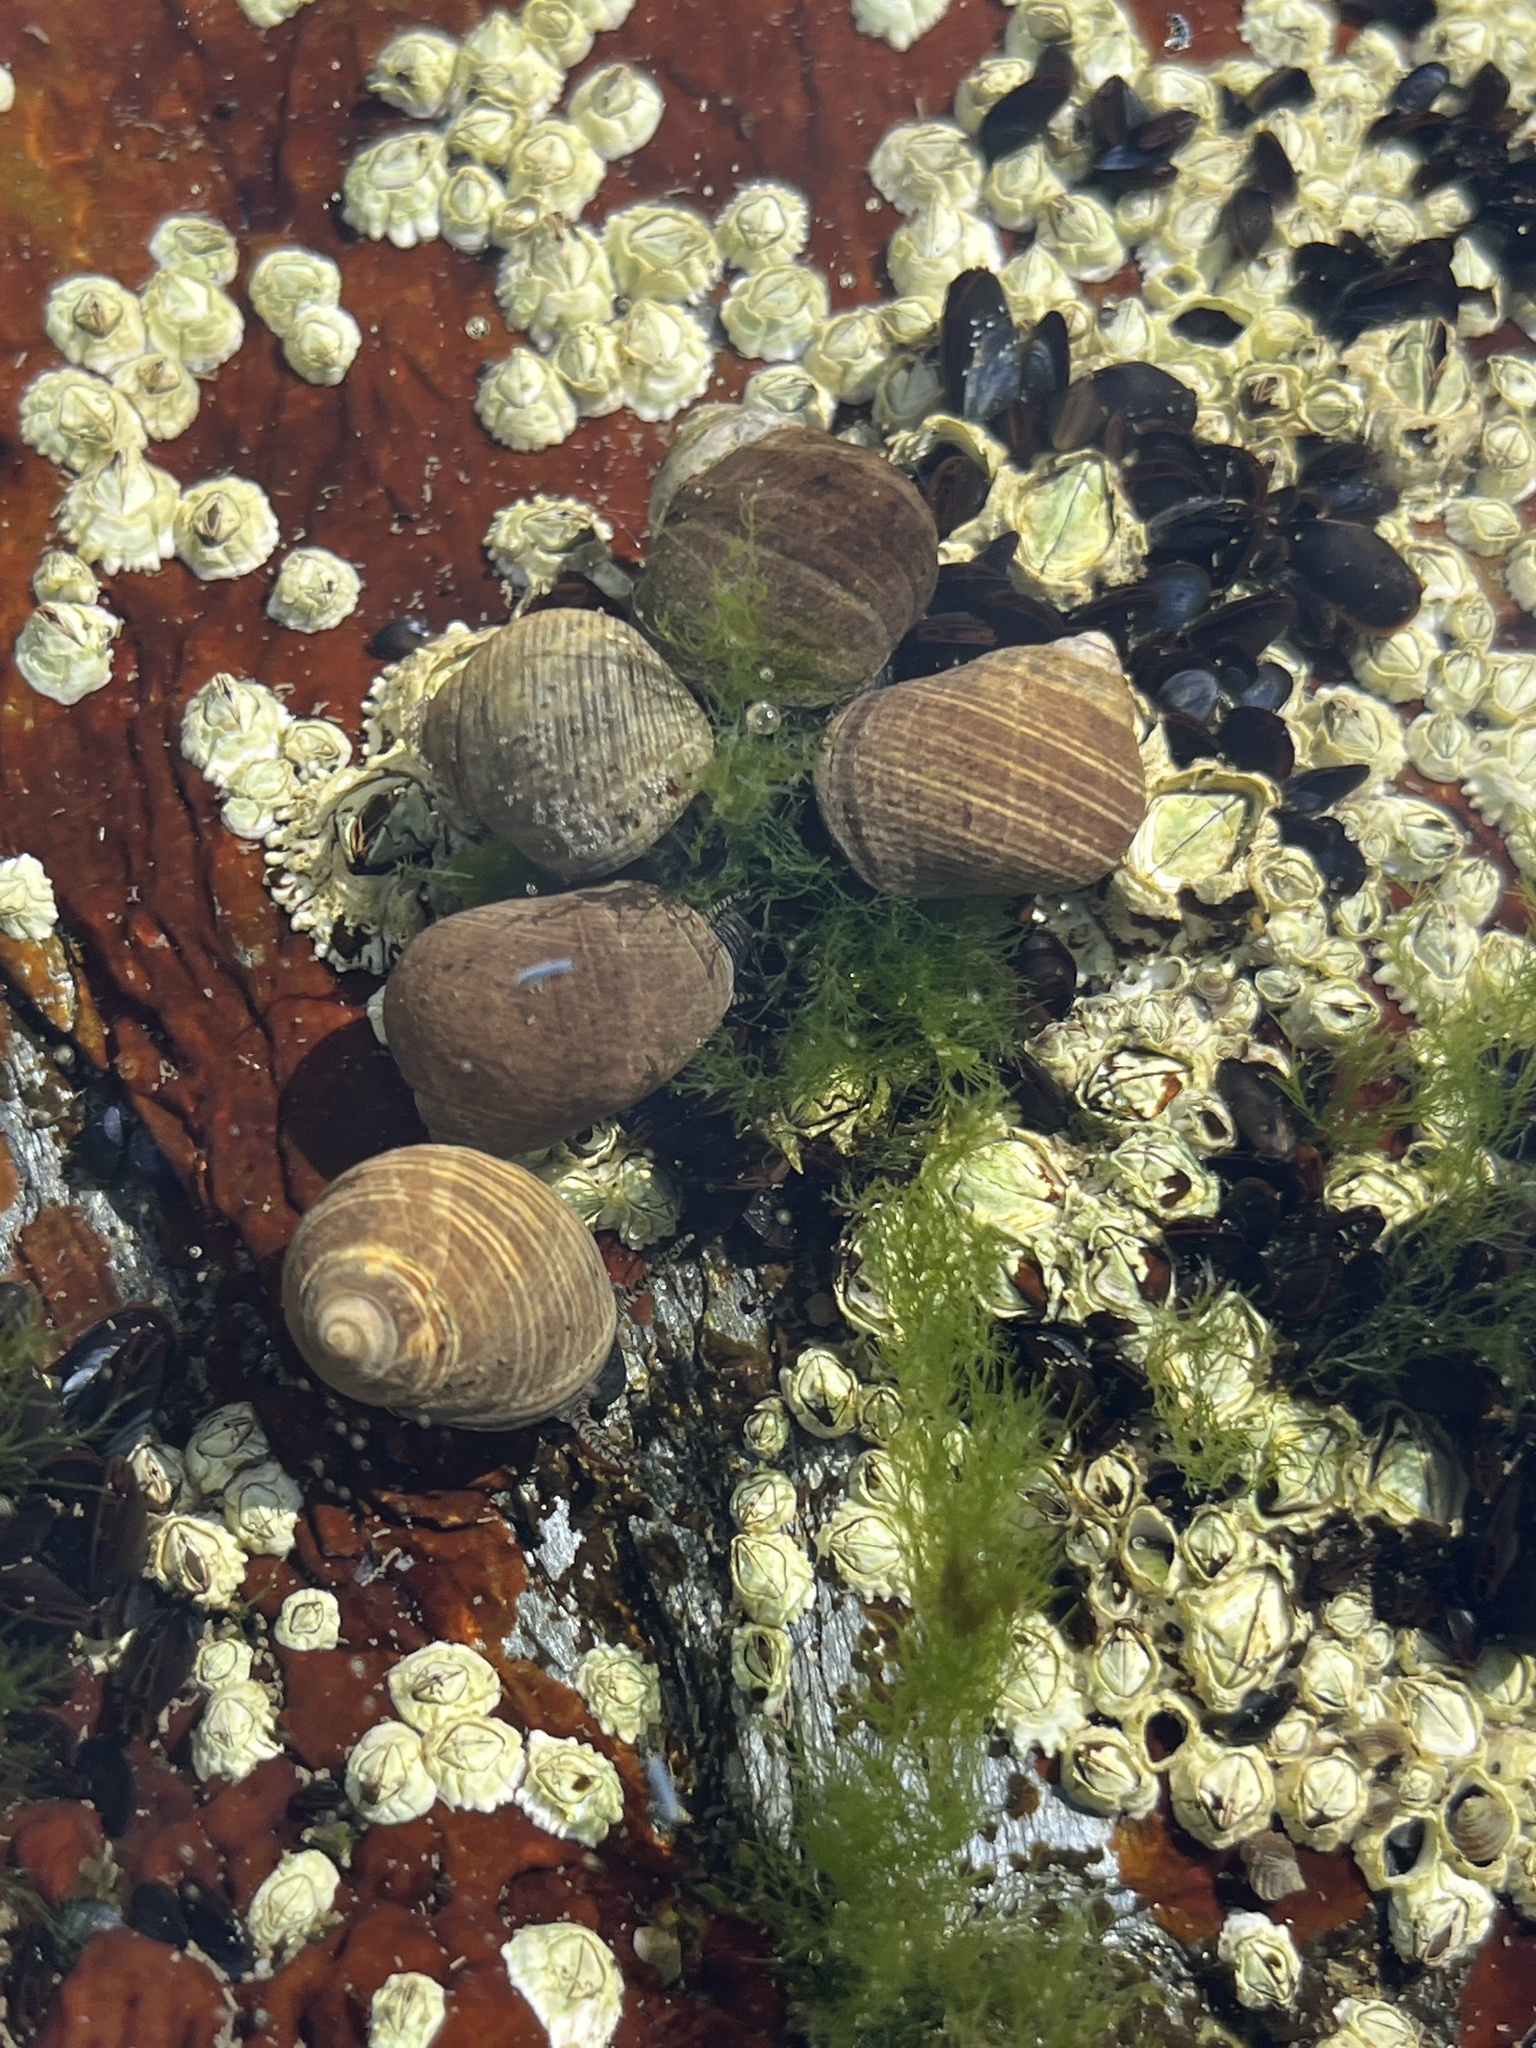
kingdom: Animalia
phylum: Mollusca
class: Gastropoda
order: Littorinimorpha
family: Littorinidae
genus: Littorina
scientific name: Littorina littorea
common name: Common periwinkle
